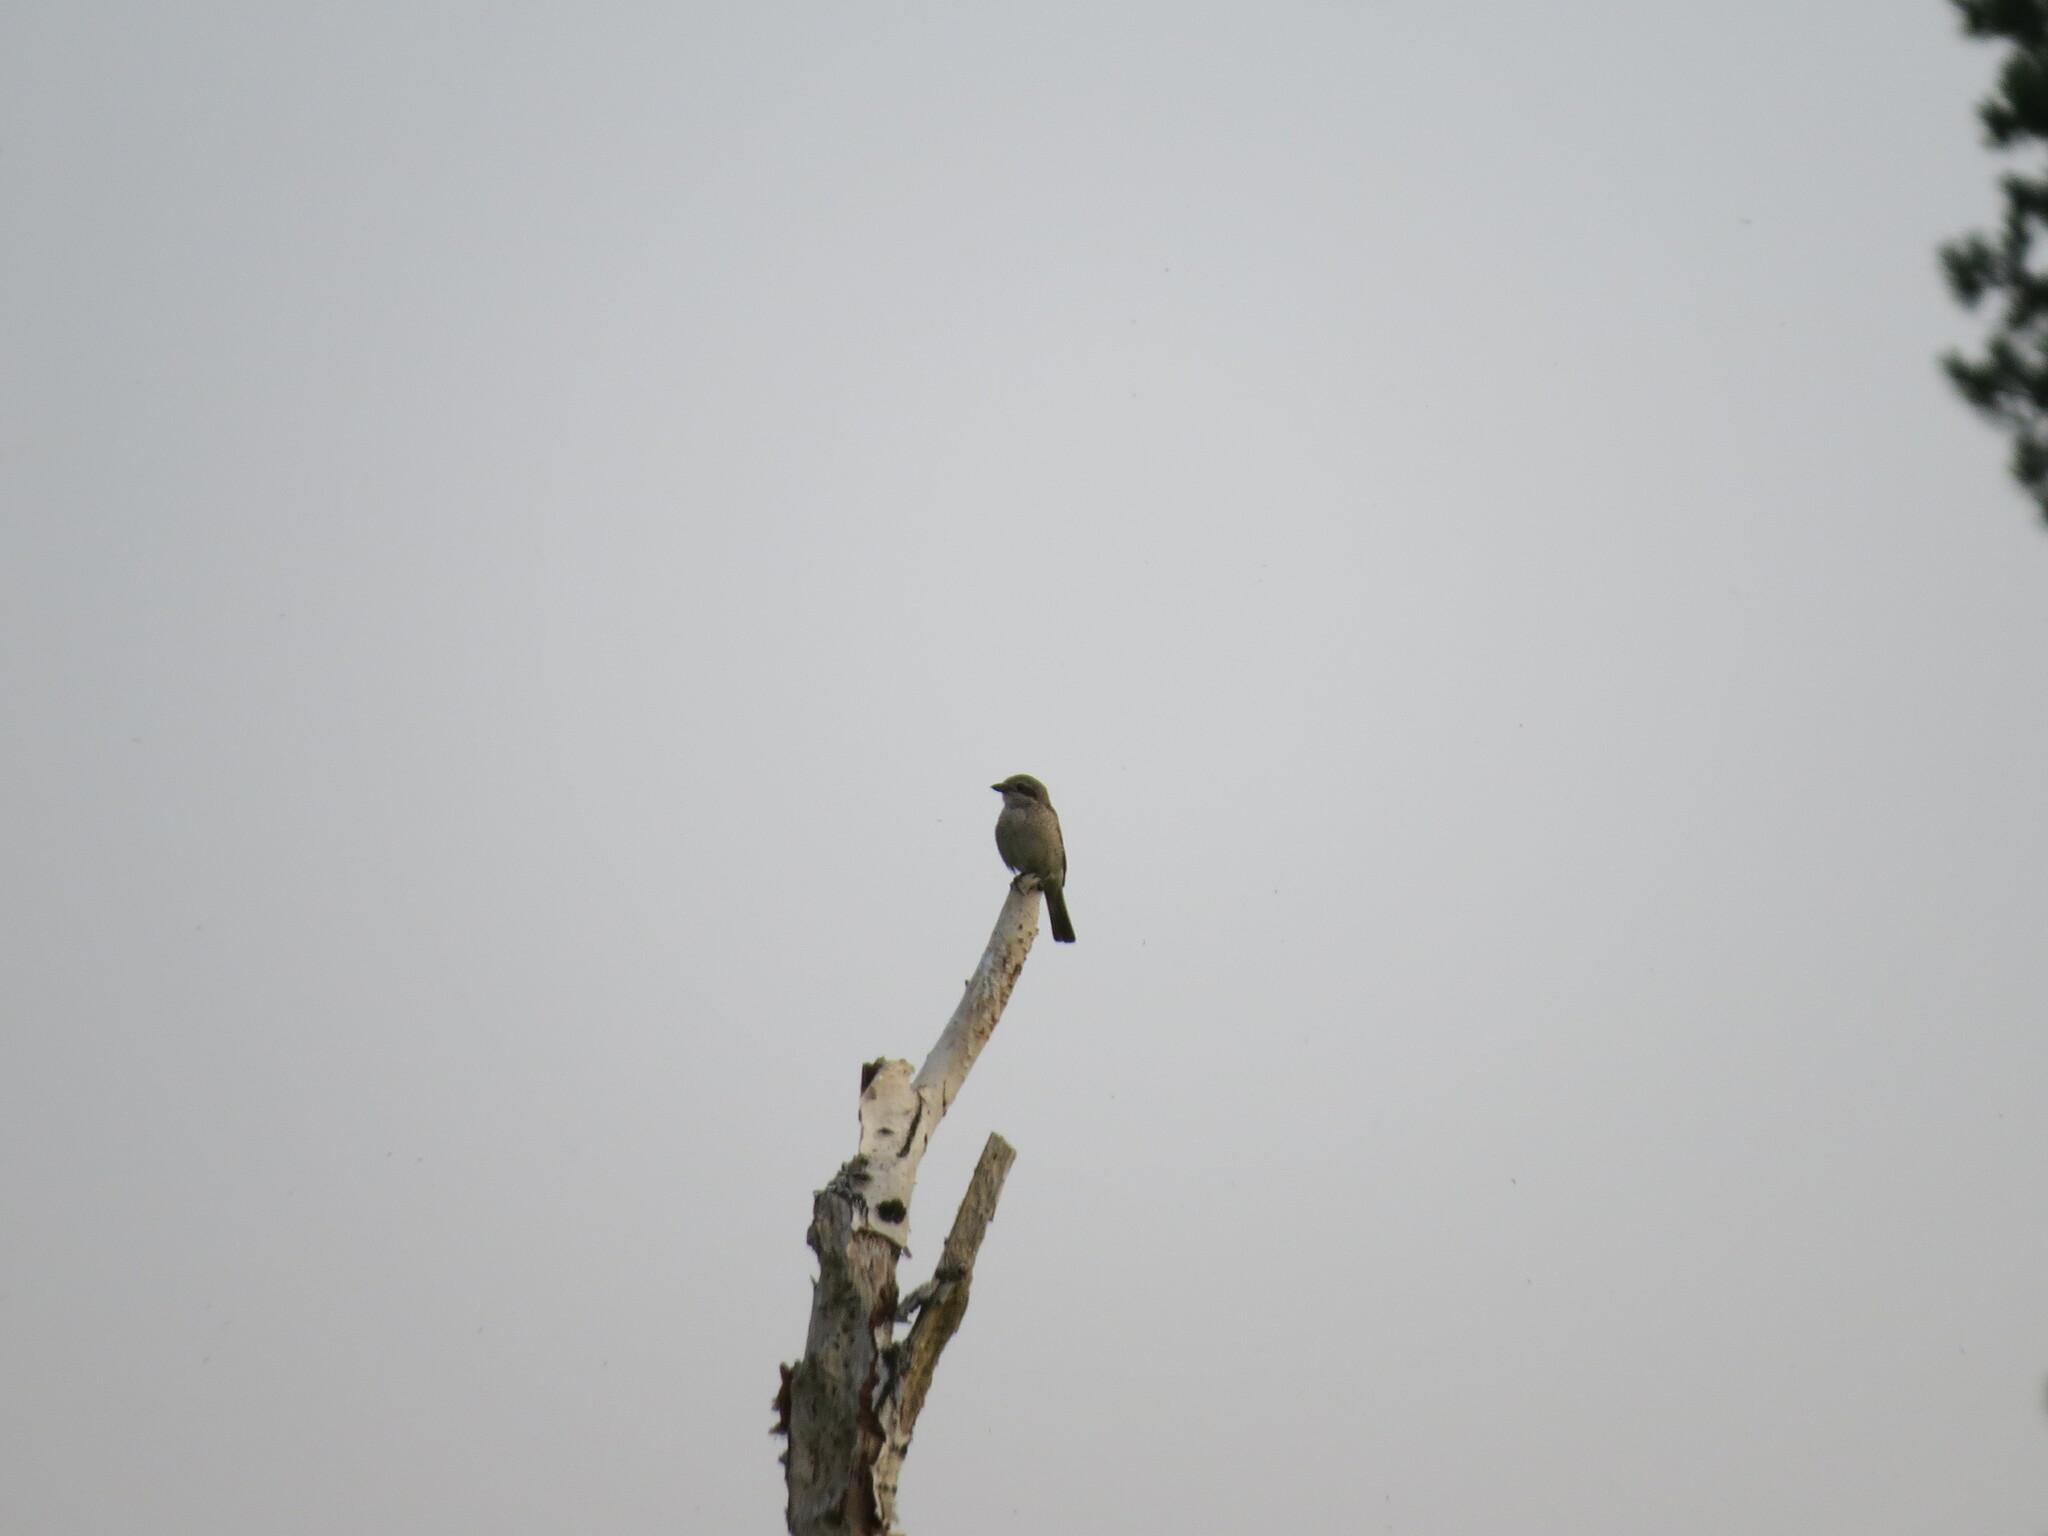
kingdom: Animalia
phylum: Chordata
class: Aves
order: Passeriformes
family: Laniidae
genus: Lanius
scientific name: Lanius collurio
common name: Red-backed shrike
